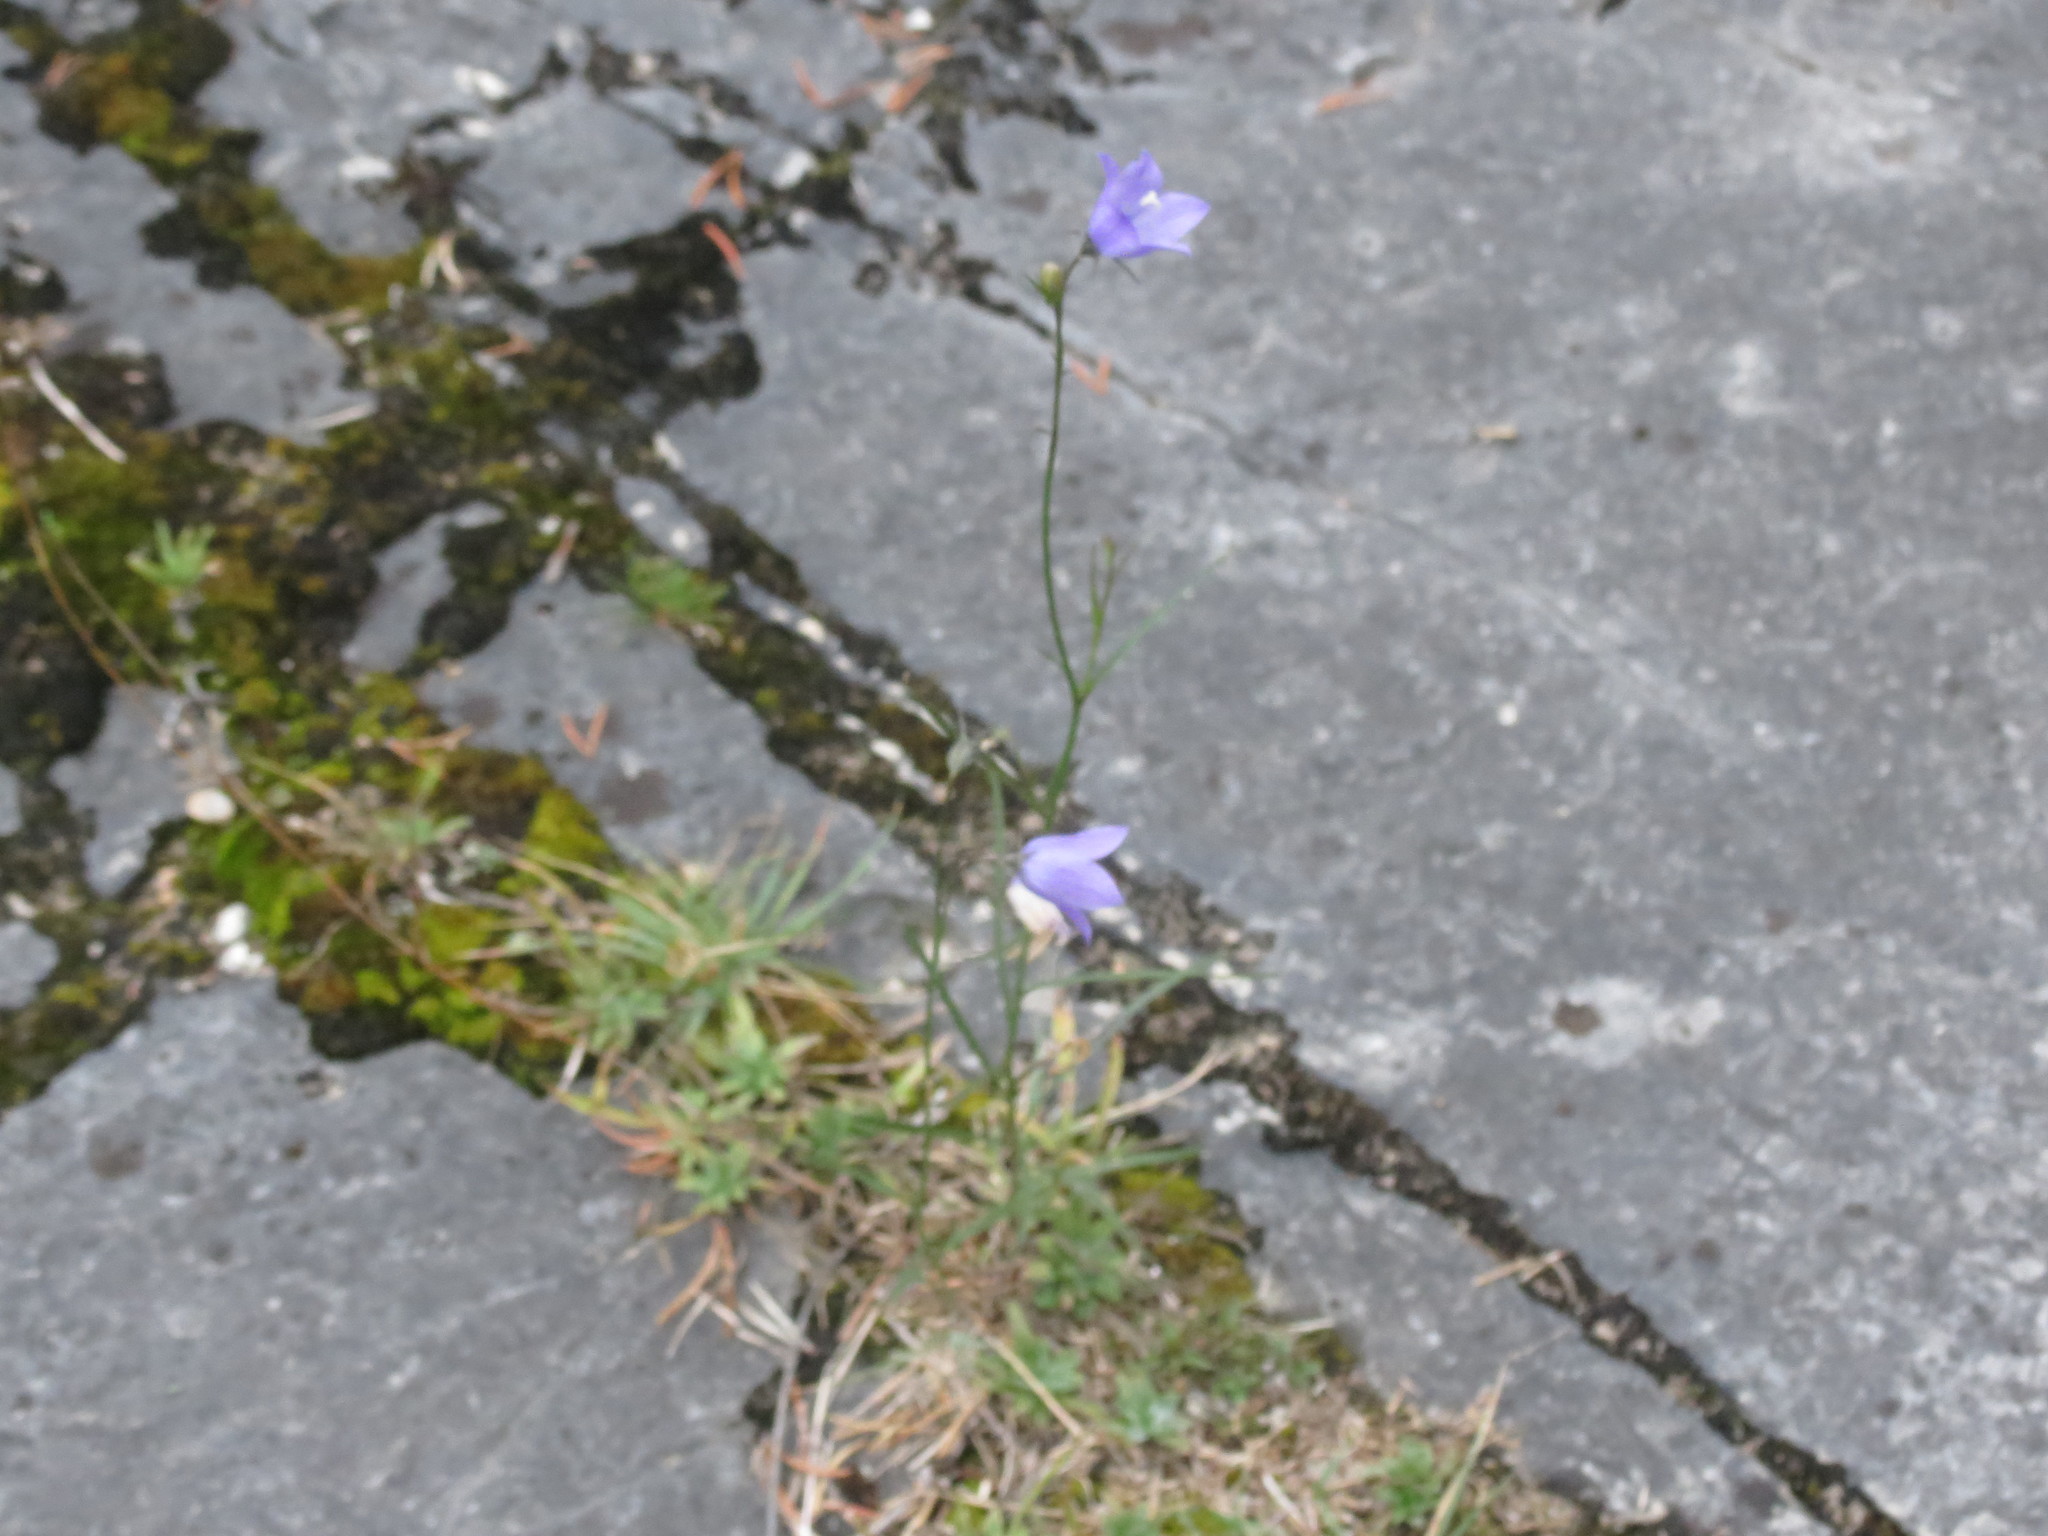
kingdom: Plantae
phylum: Tracheophyta
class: Magnoliopsida
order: Asterales
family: Campanulaceae
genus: Campanula
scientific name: Campanula giesekiana
